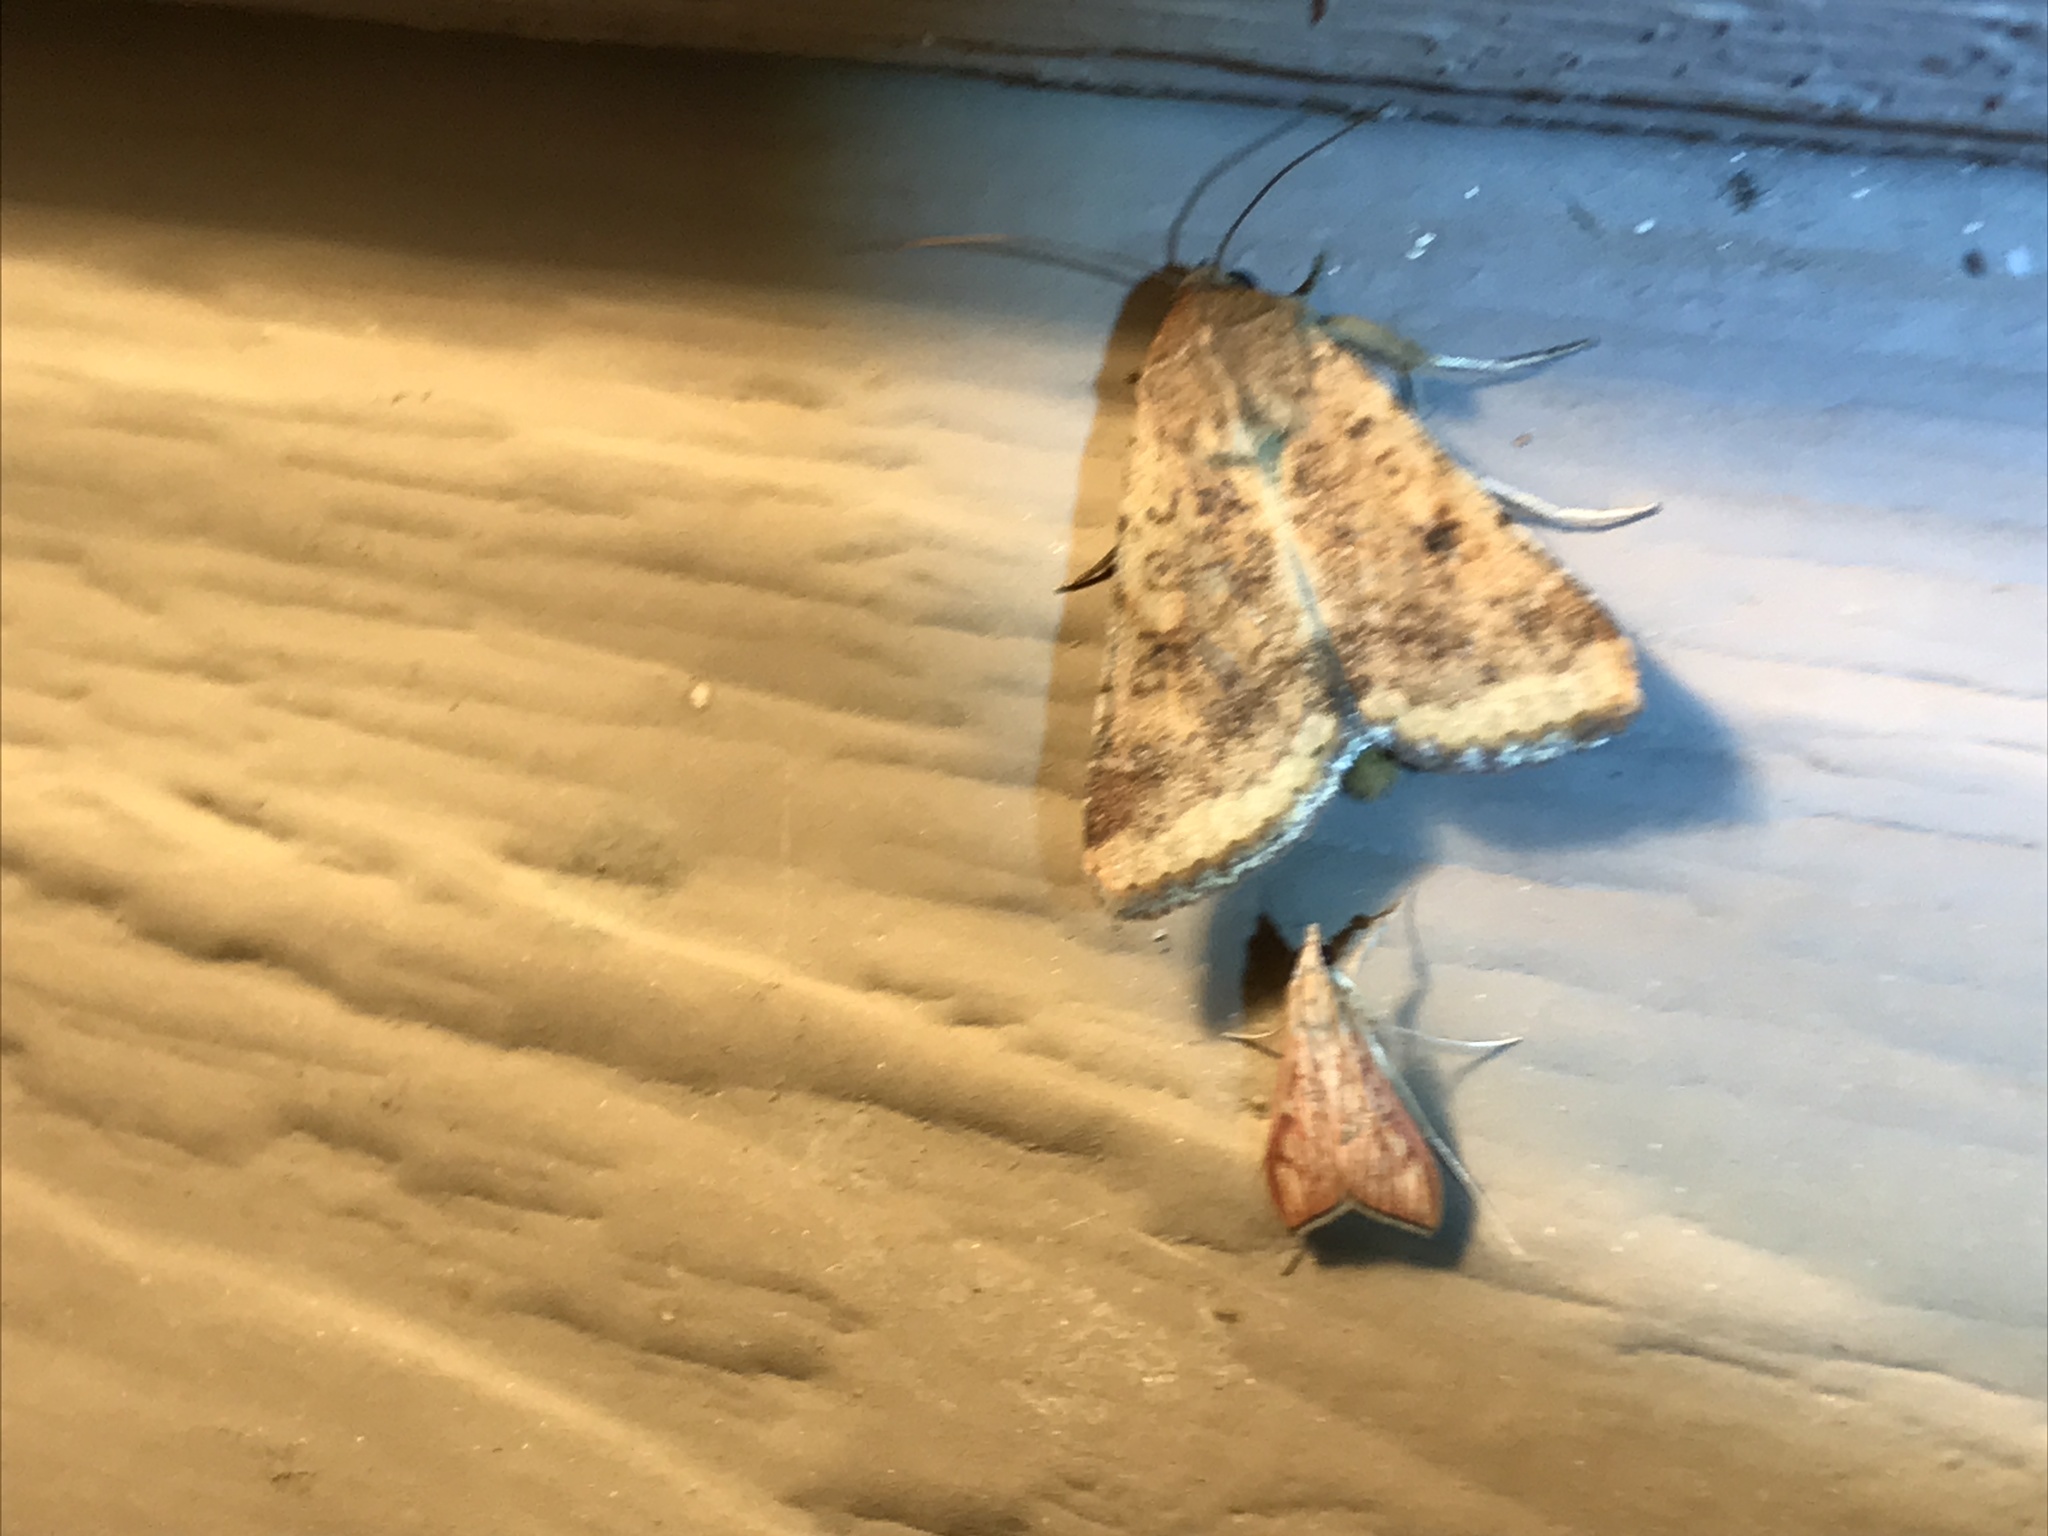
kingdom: Animalia
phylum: Arthropoda
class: Insecta
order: Lepidoptera
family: Noctuidae
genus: Helicoverpa
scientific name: Helicoverpa zea
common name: Bollworm
